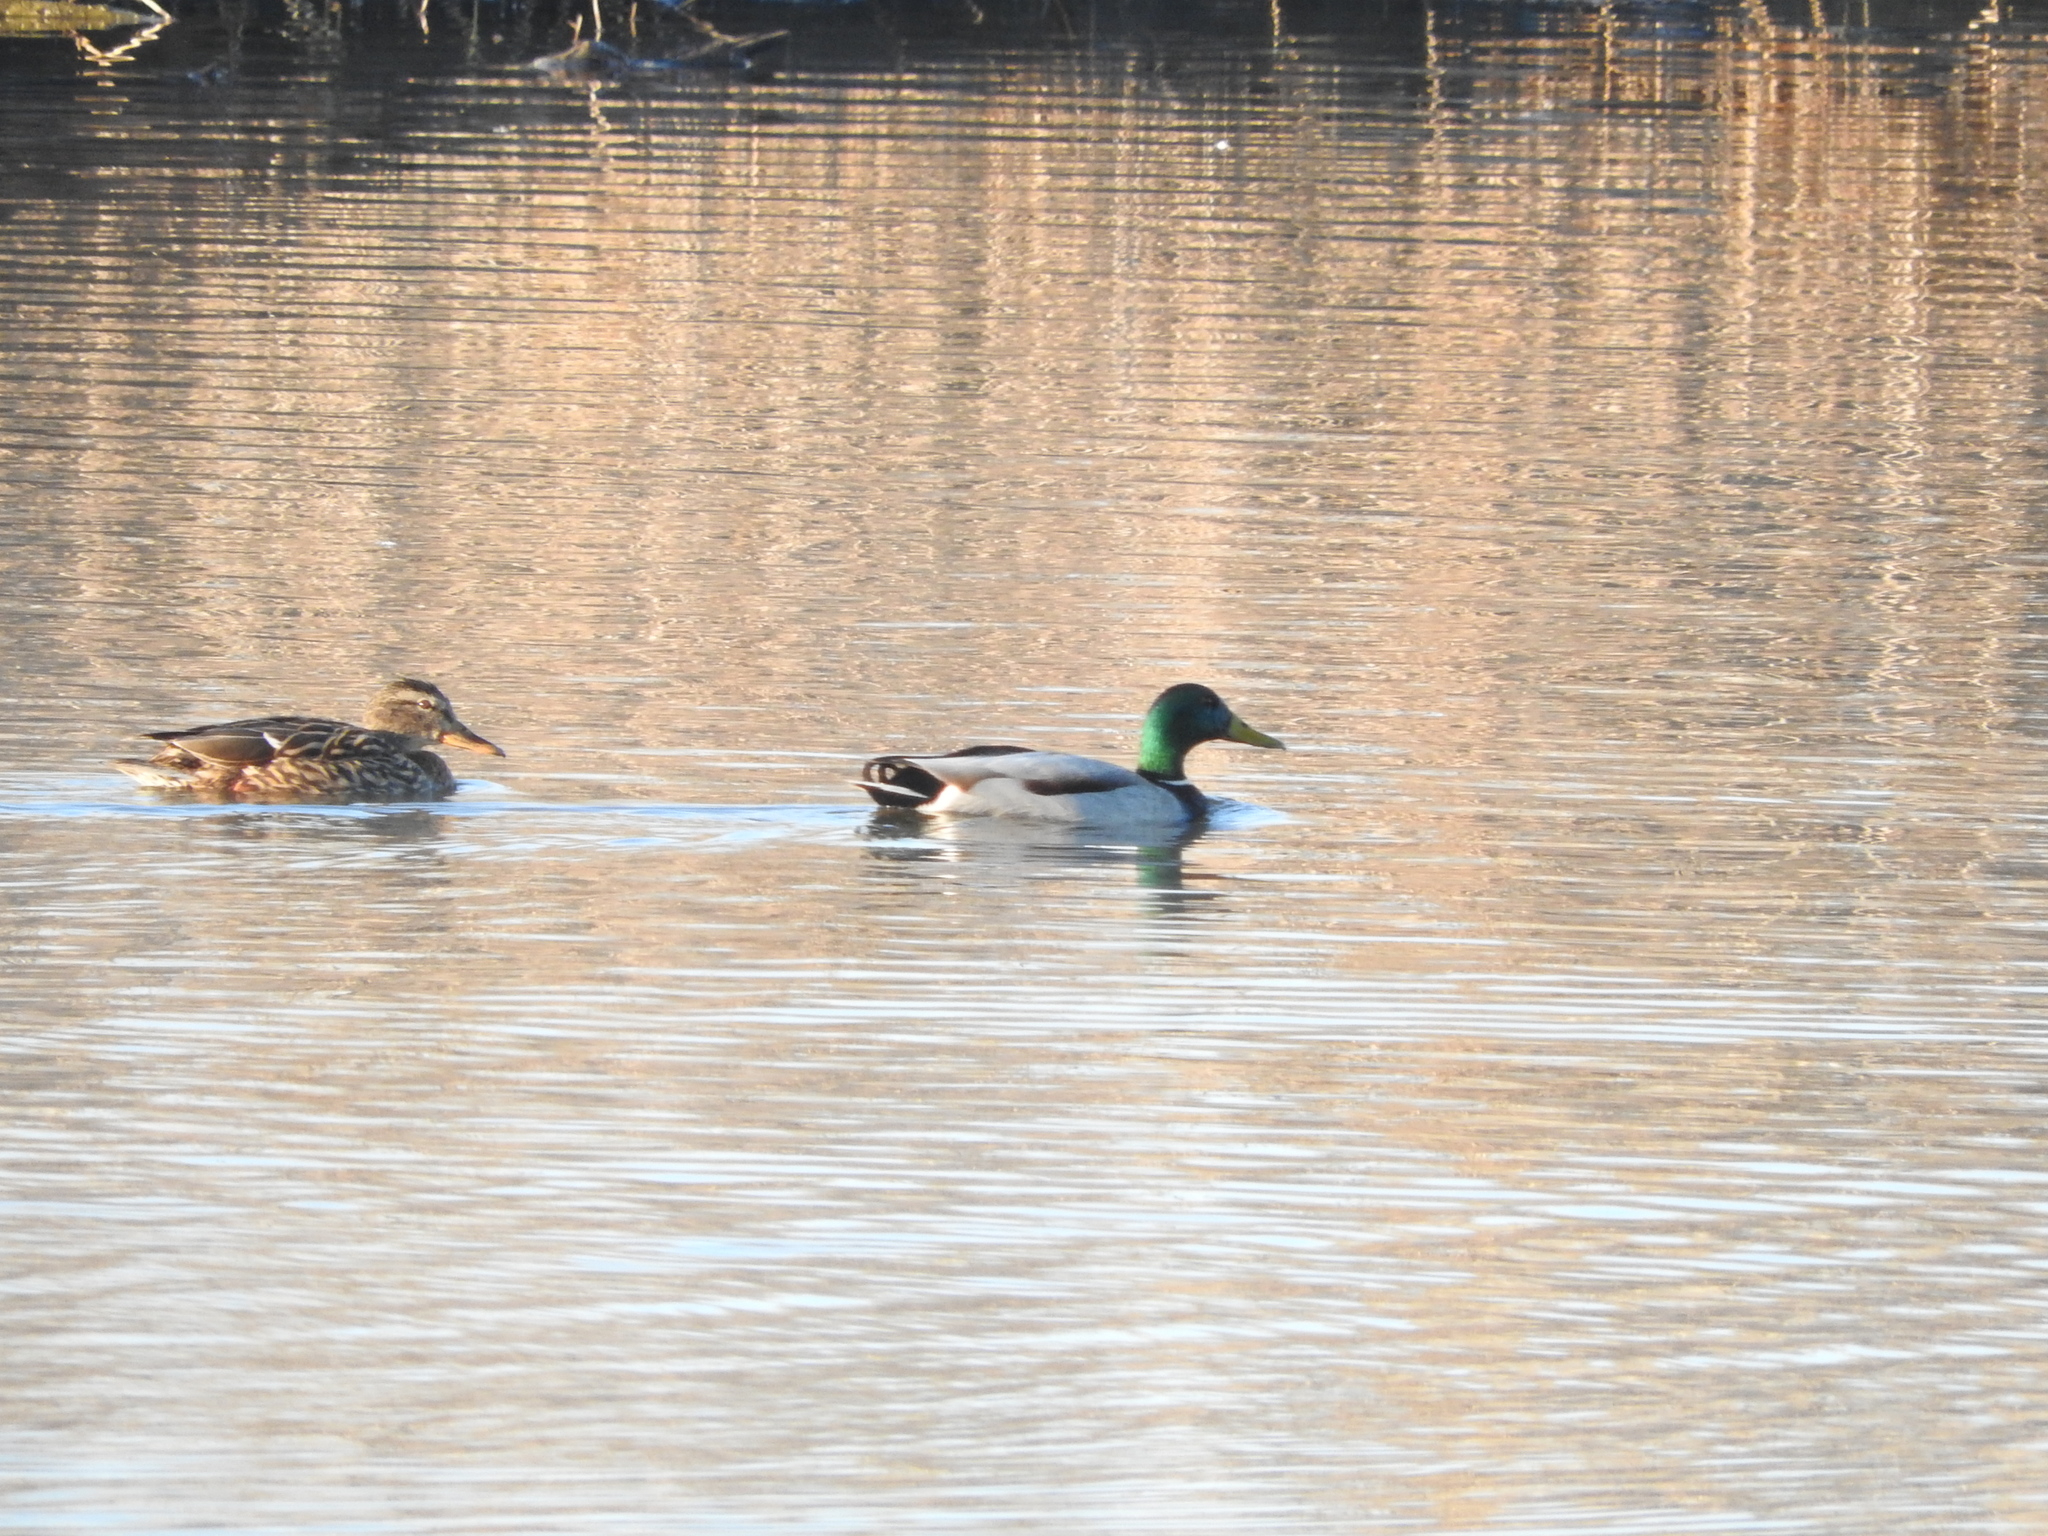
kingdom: Animalia
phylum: Chordata
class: Aves
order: Anseriformes
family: Anatidae
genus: Anas
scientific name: Anas platyrhynchos
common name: Mallard
